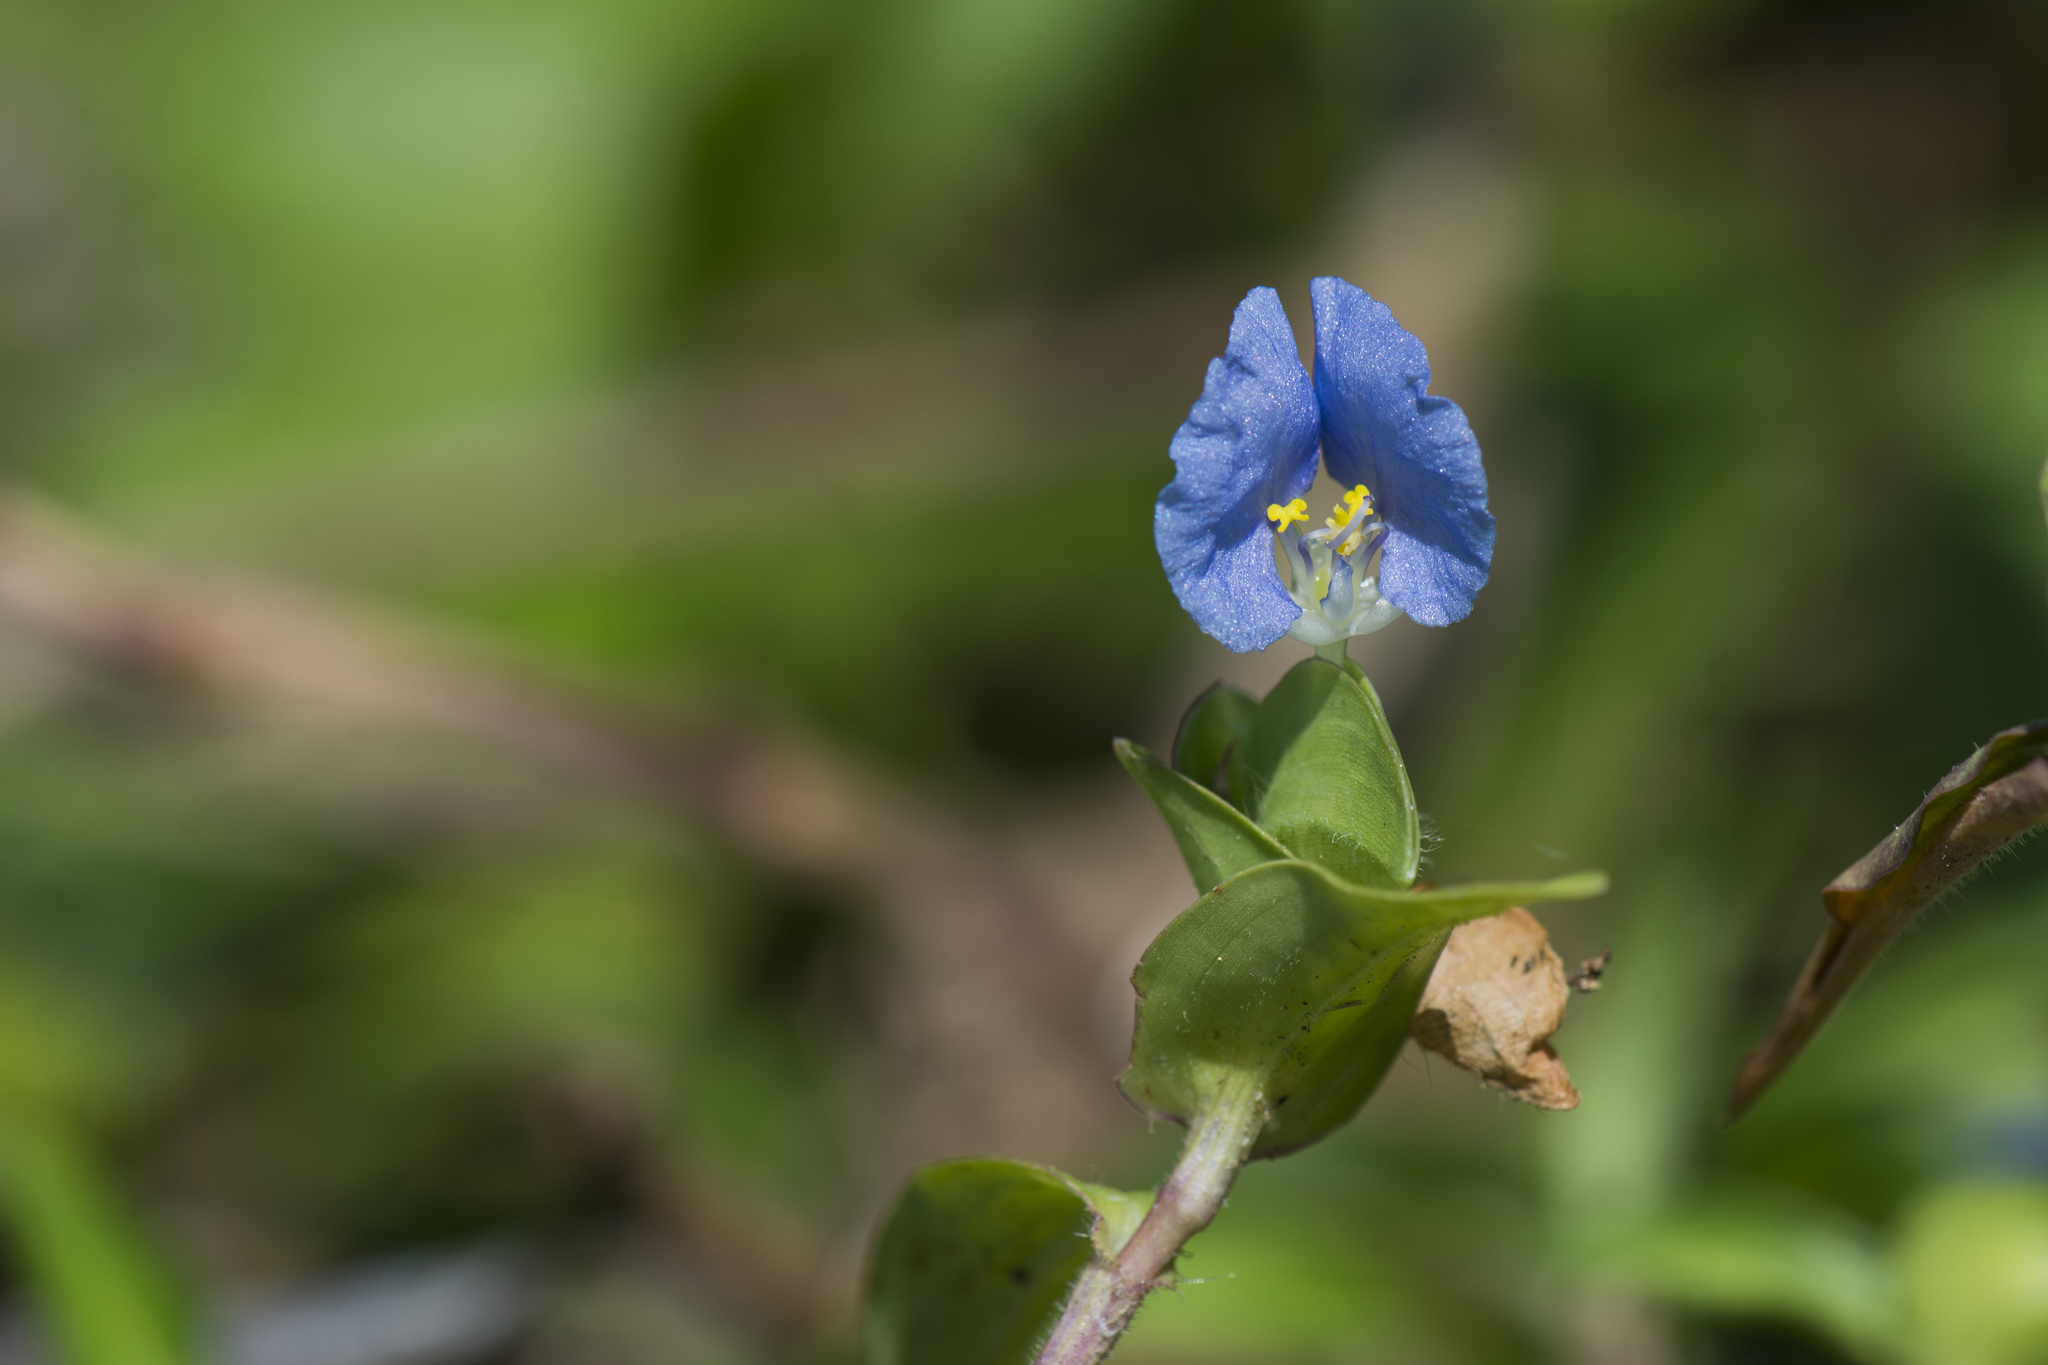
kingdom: Plantae
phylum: Tracheophyta
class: Liliopsida
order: Commelinales
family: Commelinaceae
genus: Commelina
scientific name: Commelina auriculata
